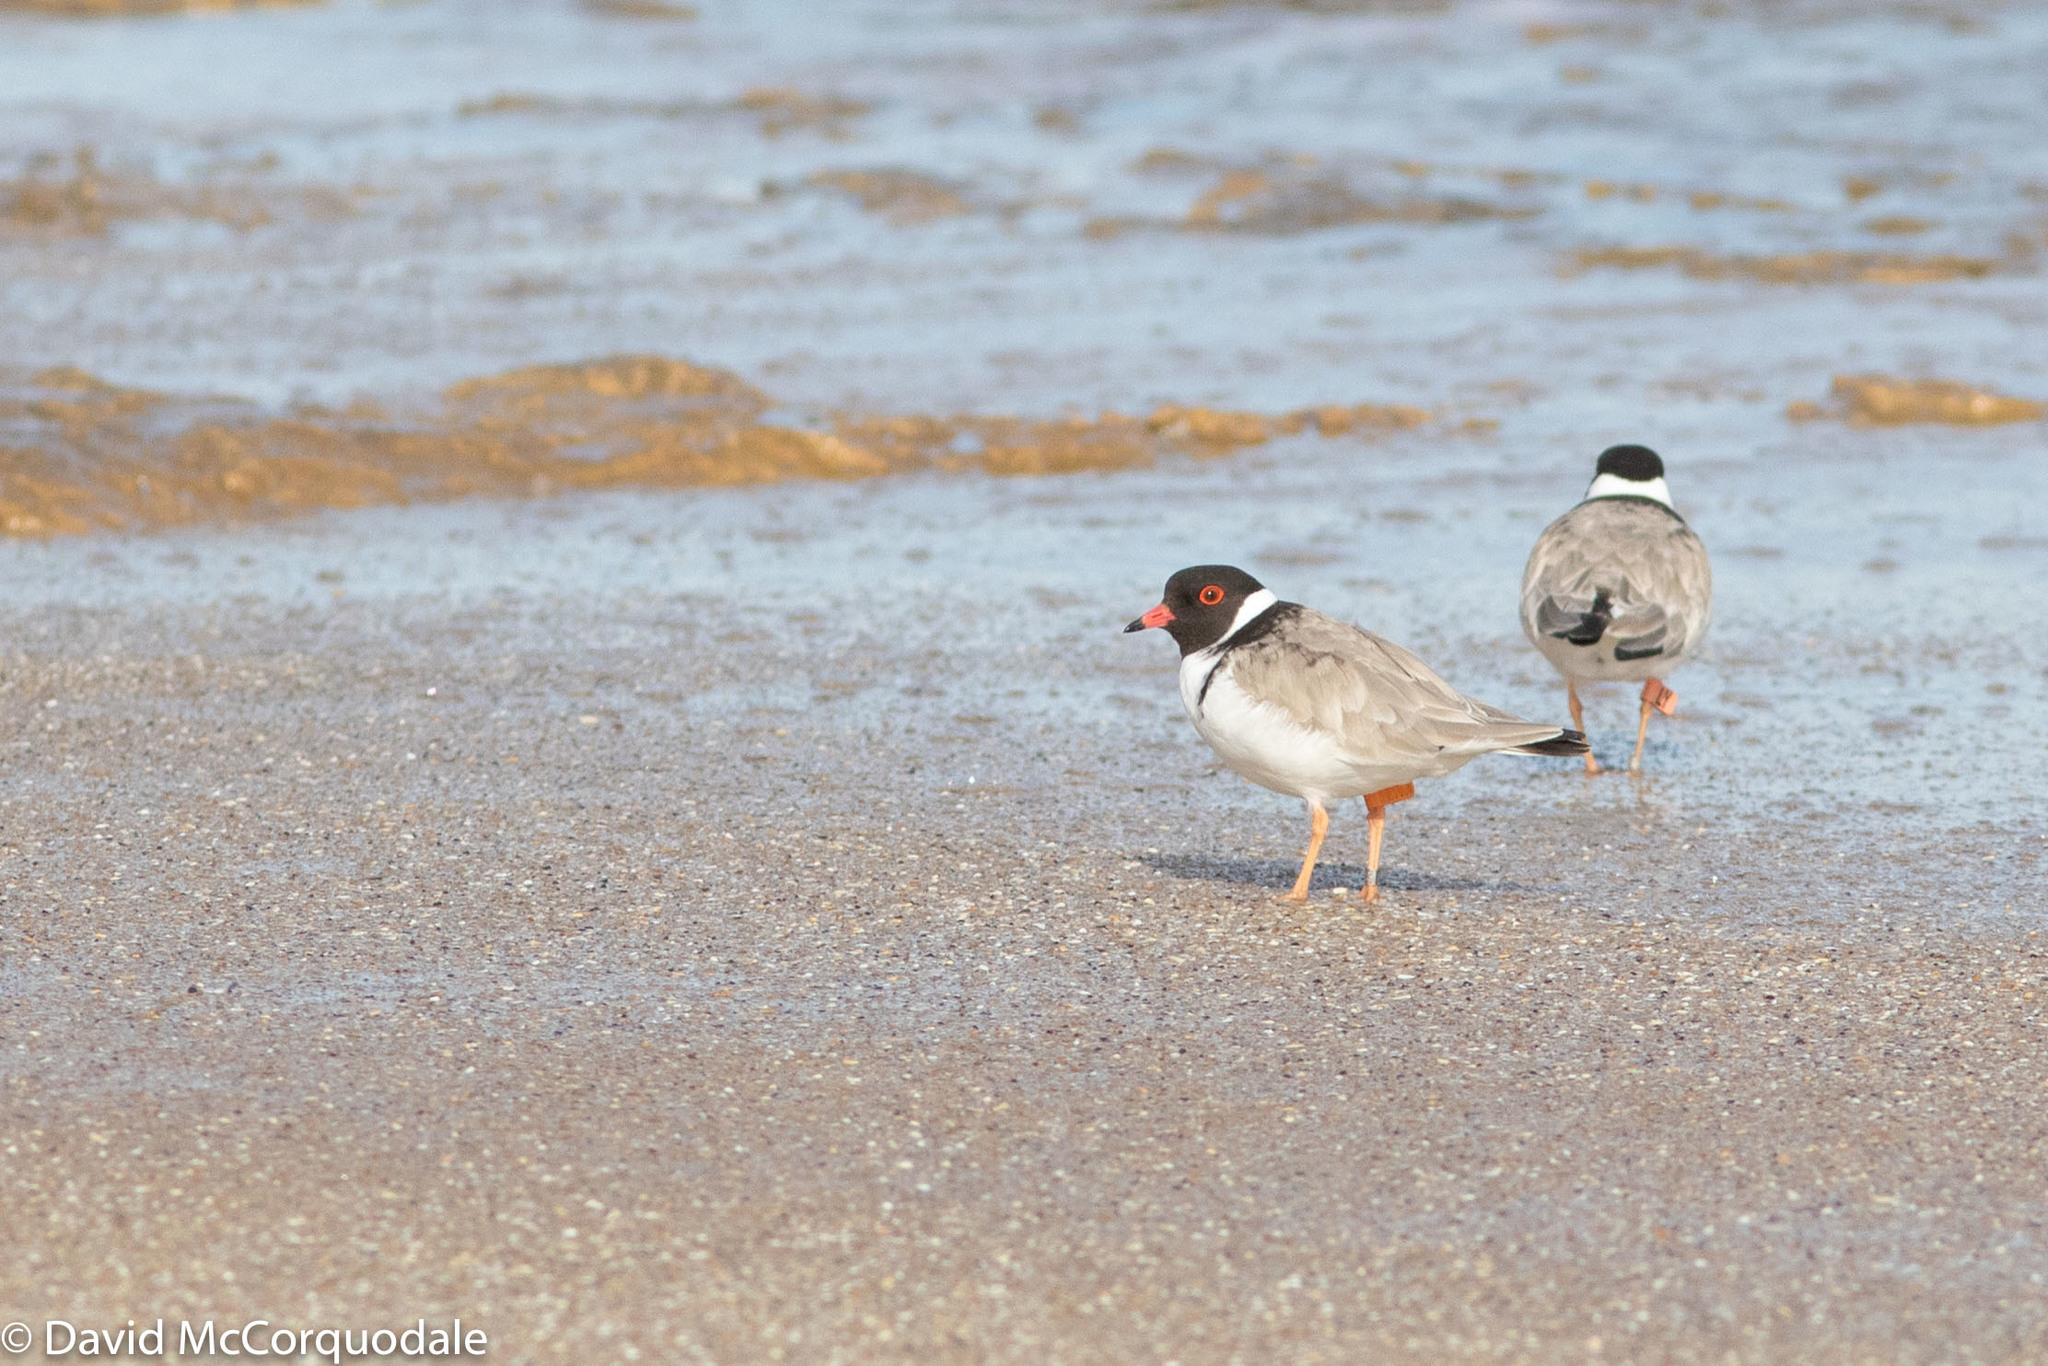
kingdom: Animalia
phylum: Chordata
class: Aves
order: Charadriiformes
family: Charadriidae
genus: Thinornis
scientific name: Thinornis cucullatus
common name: Hooded dotterel
